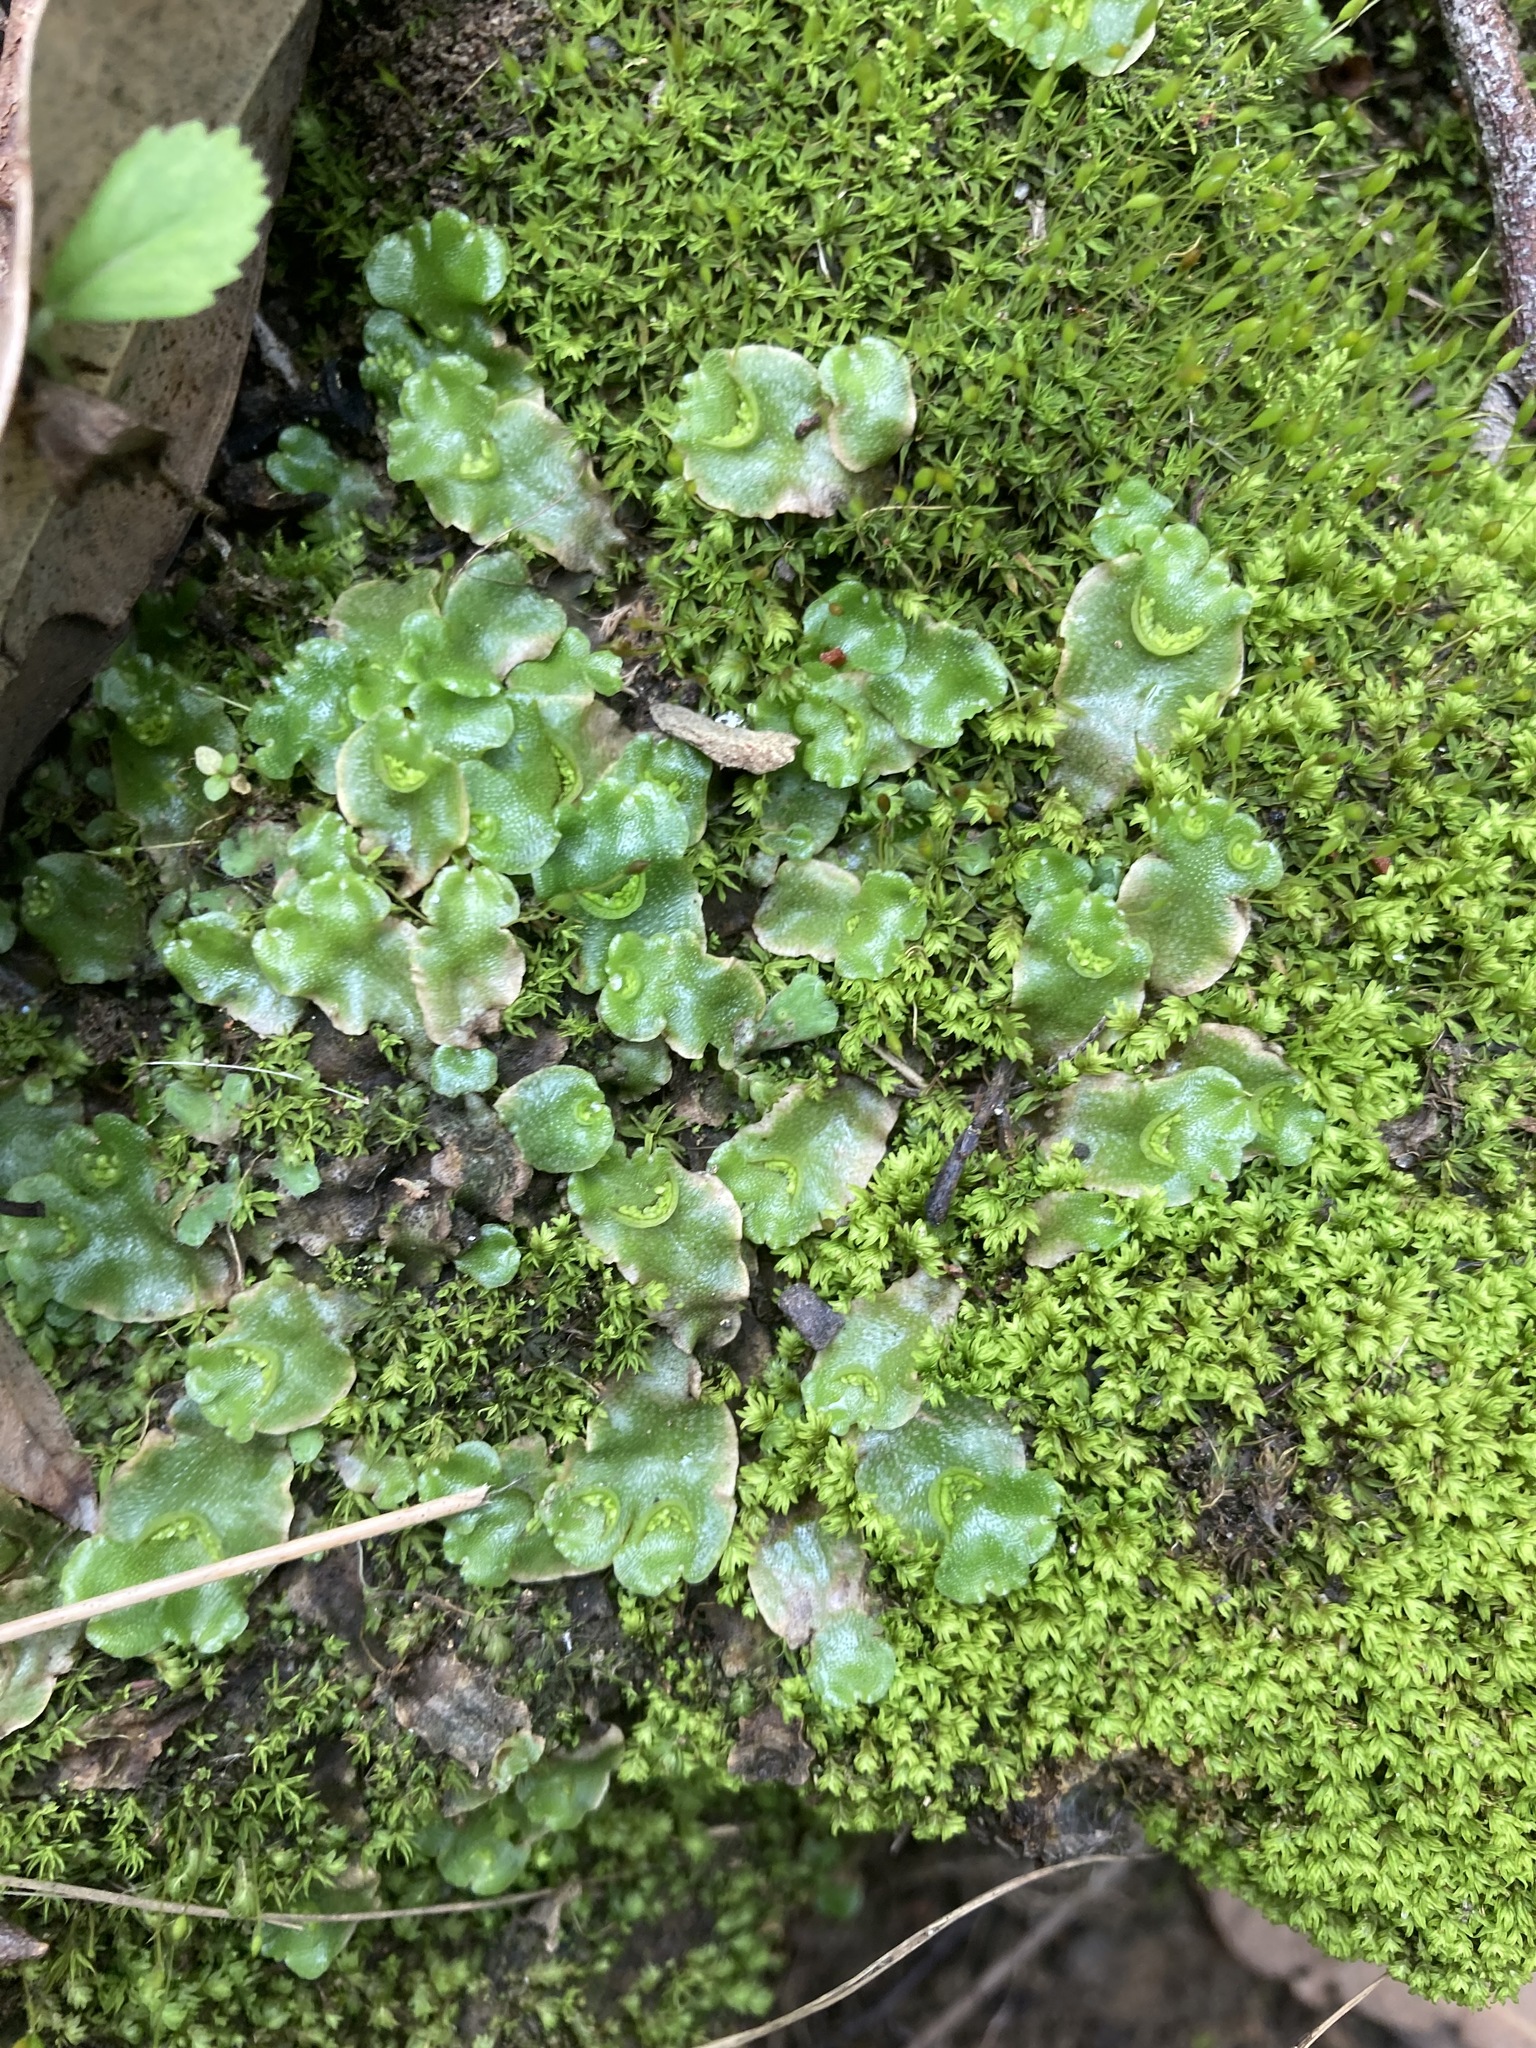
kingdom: Plantae
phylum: Marchantiophyta
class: Marchantiopsida
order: Lunulariales
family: Lunulariaceae
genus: Lunularia
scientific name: Lunularia cruciata
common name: Crescent-cup liverwort
